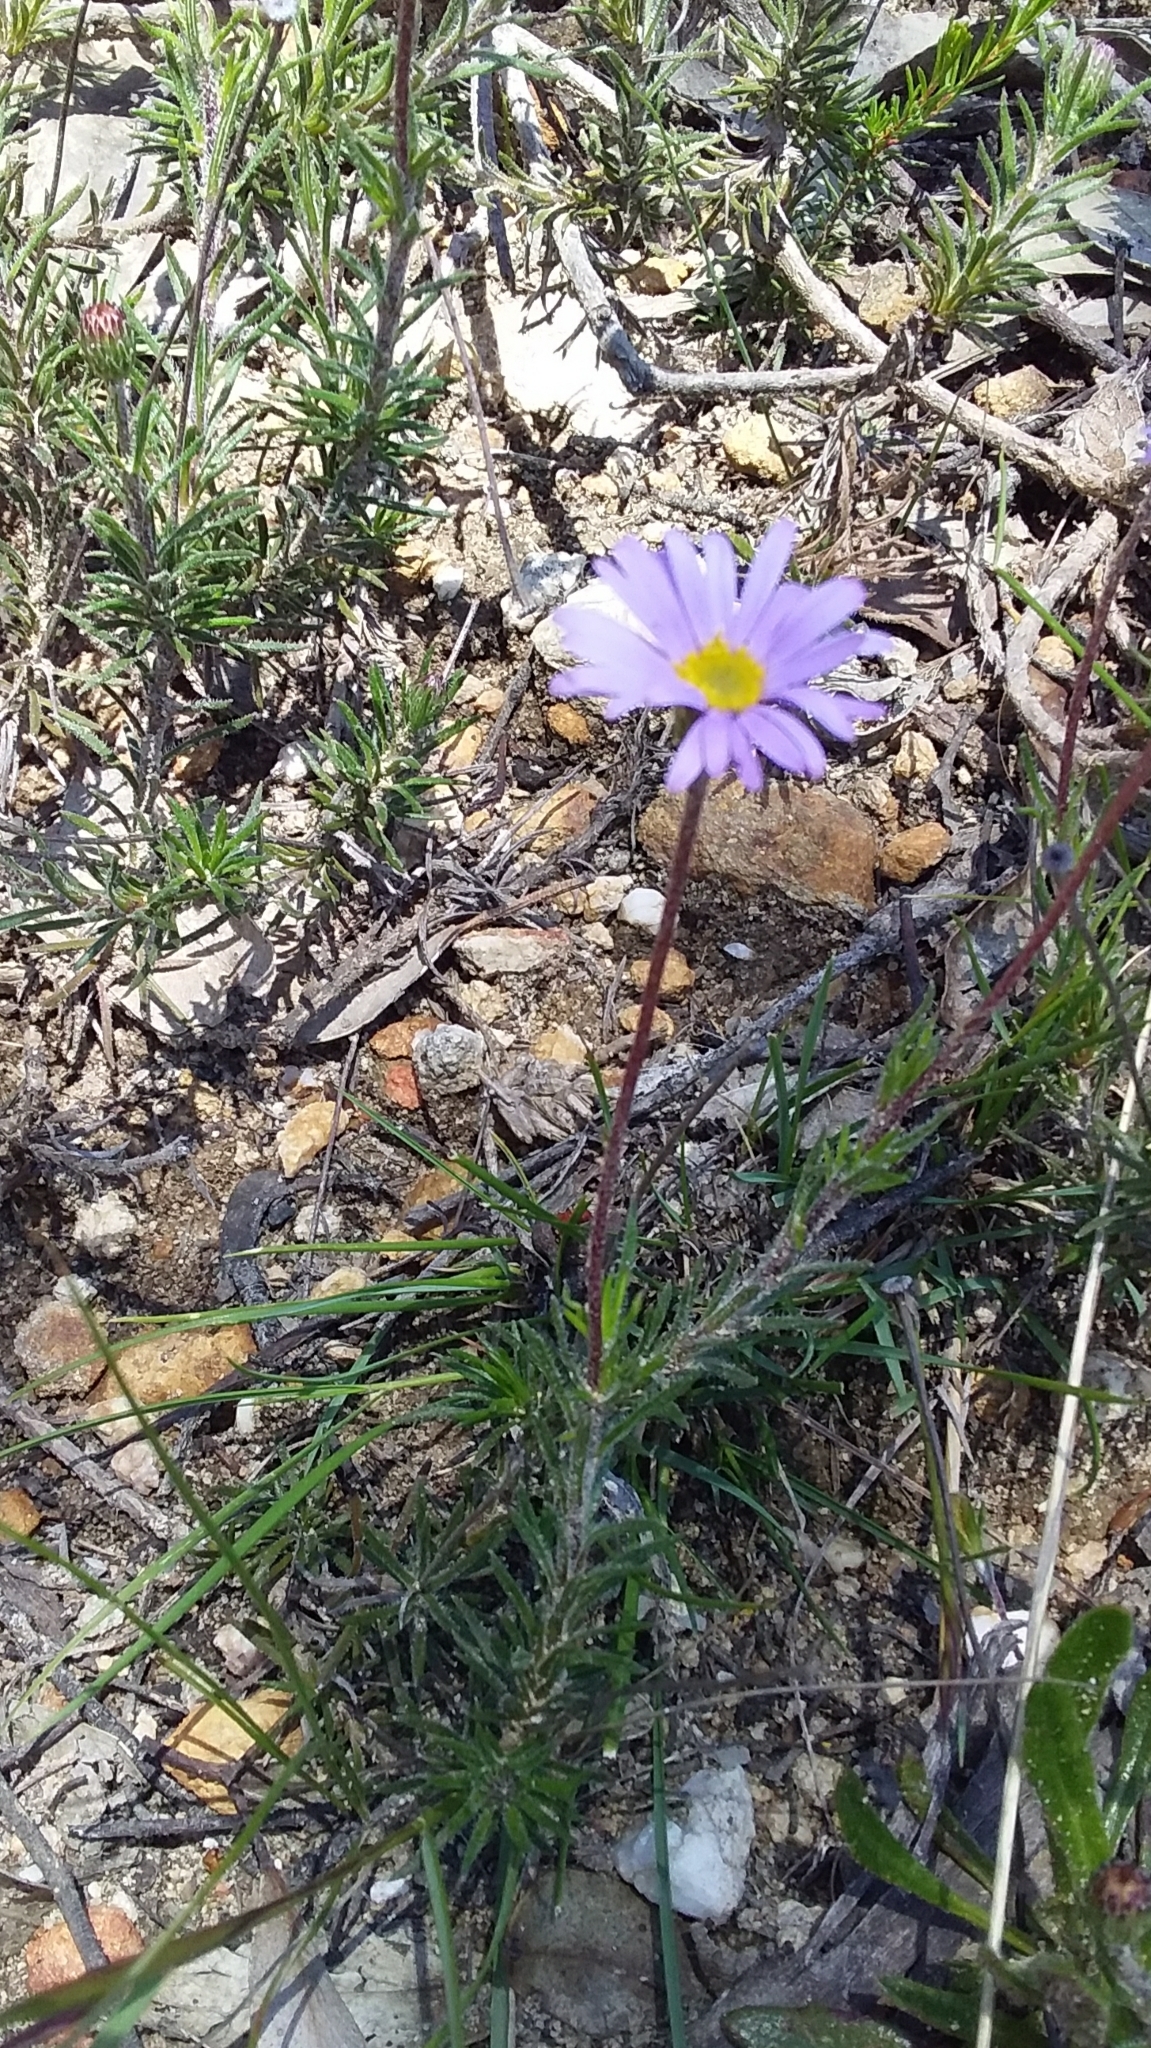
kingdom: Plantae
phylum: Tracheophyta
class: Magnoliopsida
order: Asterales
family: Asteraceae
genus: Olearia
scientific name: Olearia ciliata
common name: Fringed daisybush
